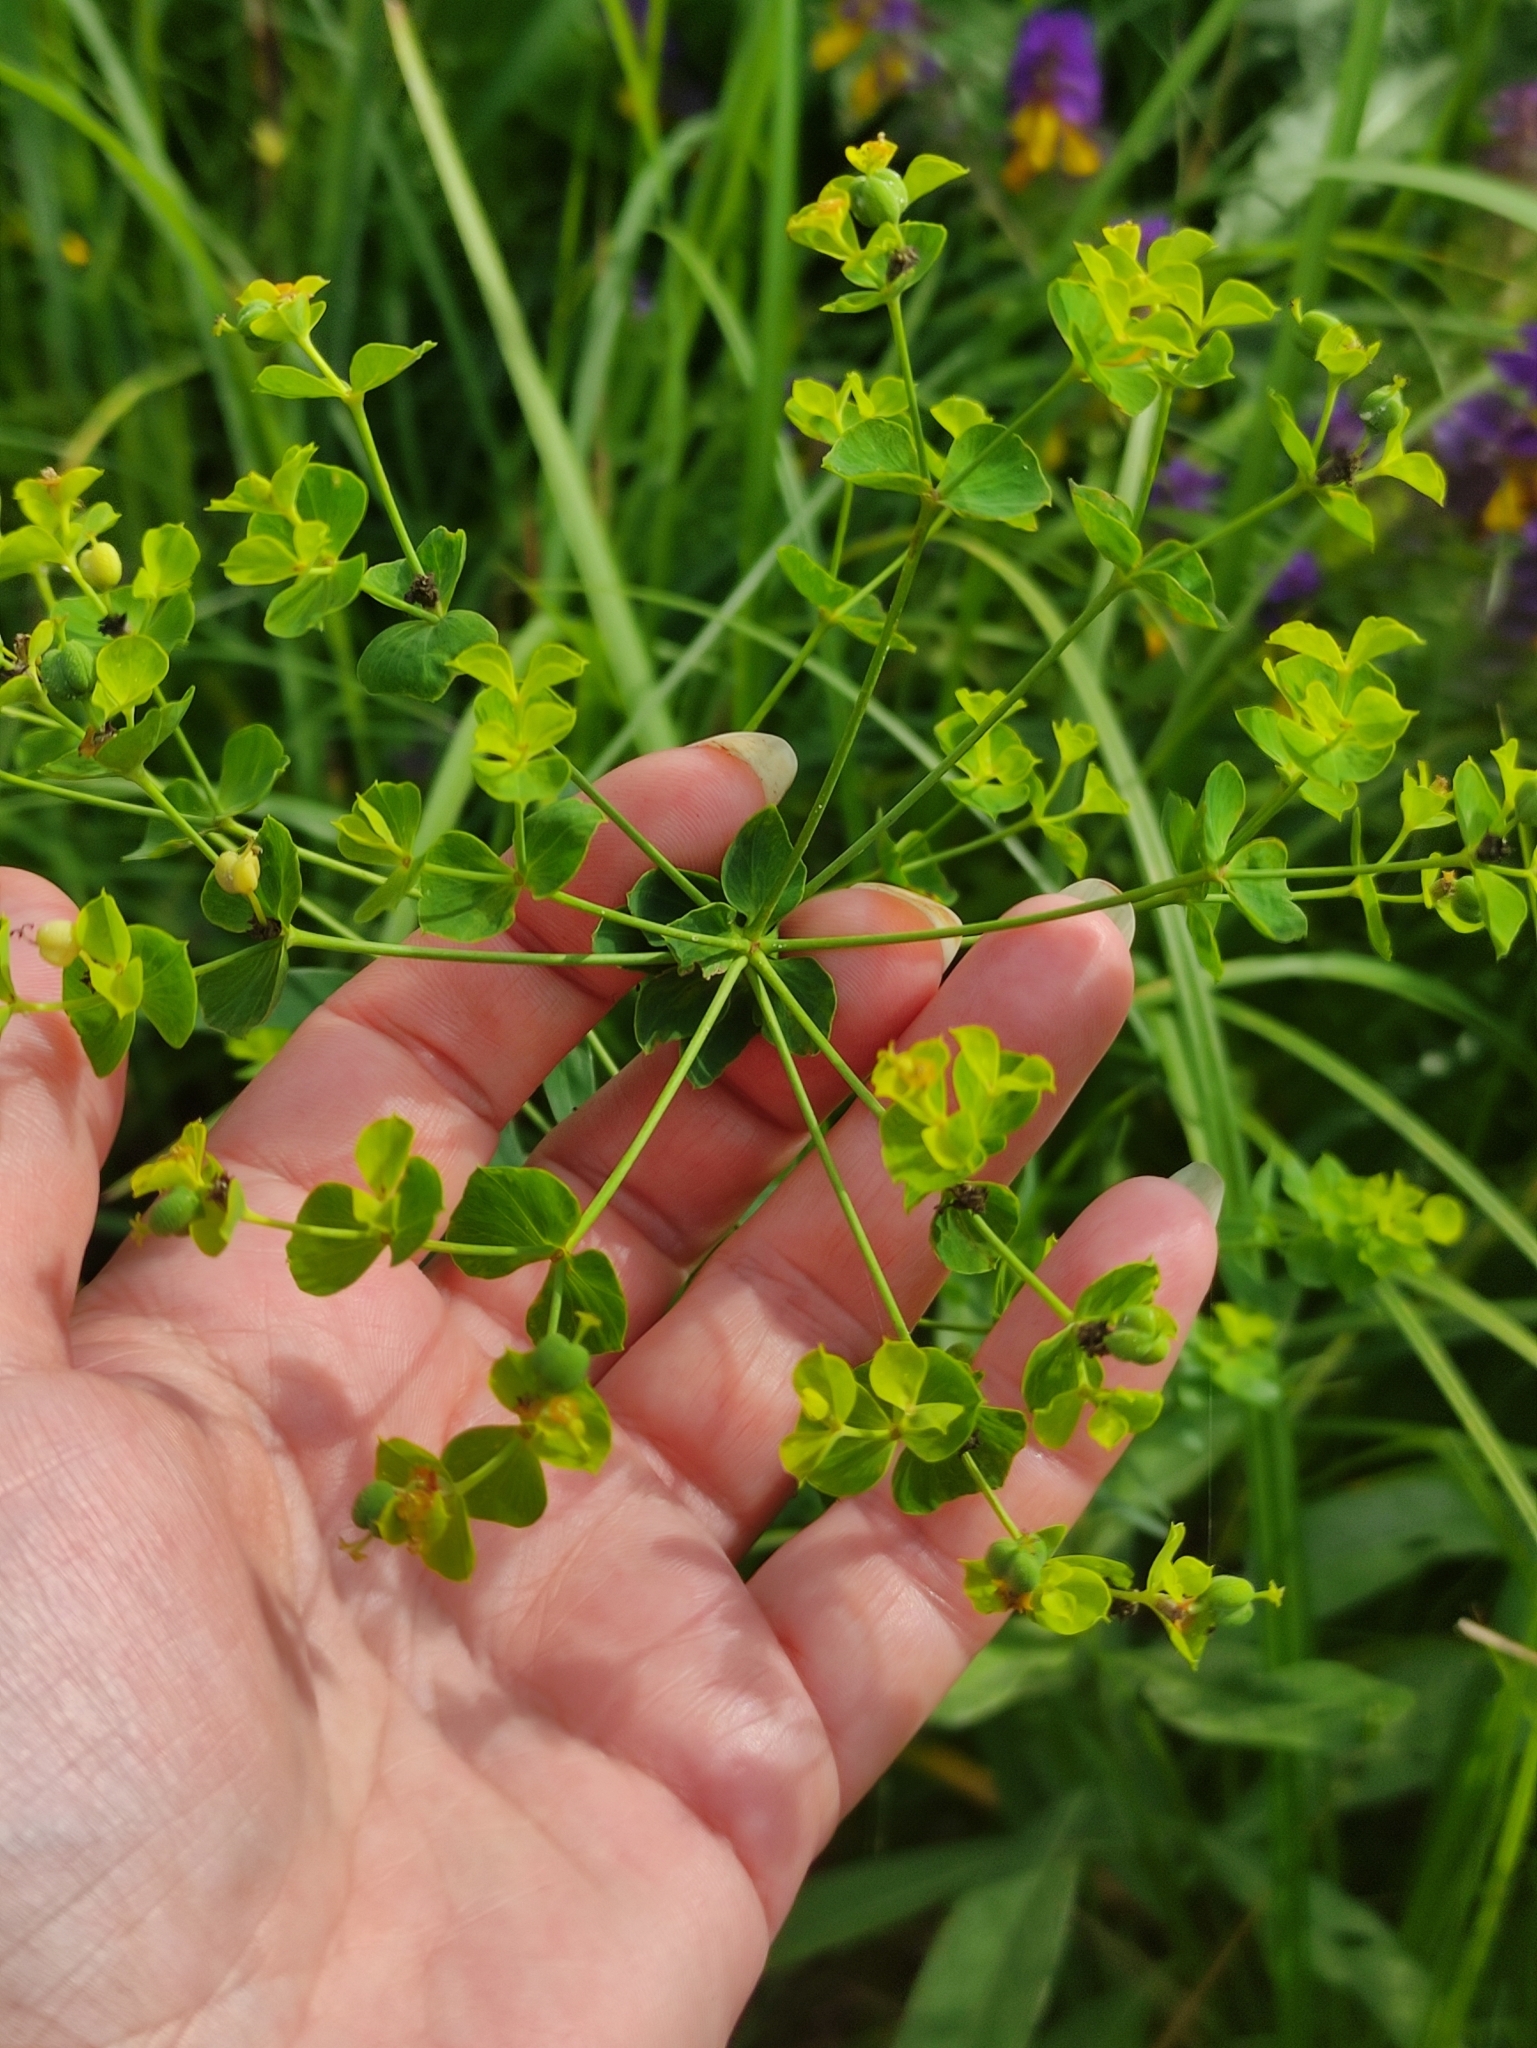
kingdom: Plantae
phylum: Tracheophyta
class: Magnoliopsida
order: Malpighiales
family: Euphorbiaceae
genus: Euphorbia
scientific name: Euphorbia virgata
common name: Leafy spurge
